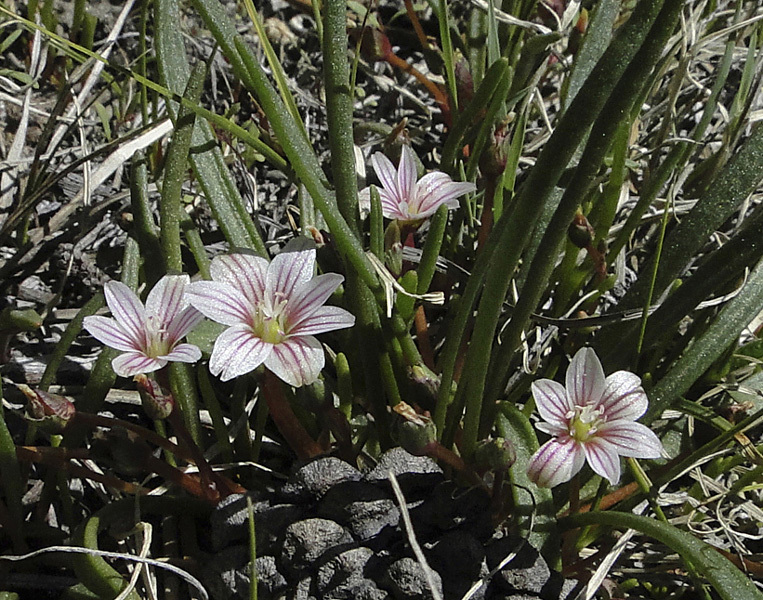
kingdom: Plantae
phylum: Tracheophyta
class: Magnoliopsida
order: Caryophyllales
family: Montiaceae
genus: Lewisia
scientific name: Lewisia pygmaea
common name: Alpine bitterroot
